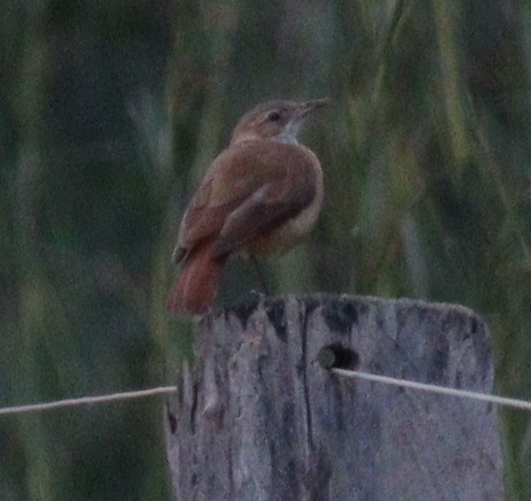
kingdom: Animalia
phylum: Chordata
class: Aves
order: Passeriformes
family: Furnariidae
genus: Furnarius
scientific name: Furnarius rufus
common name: Rufous hornero
